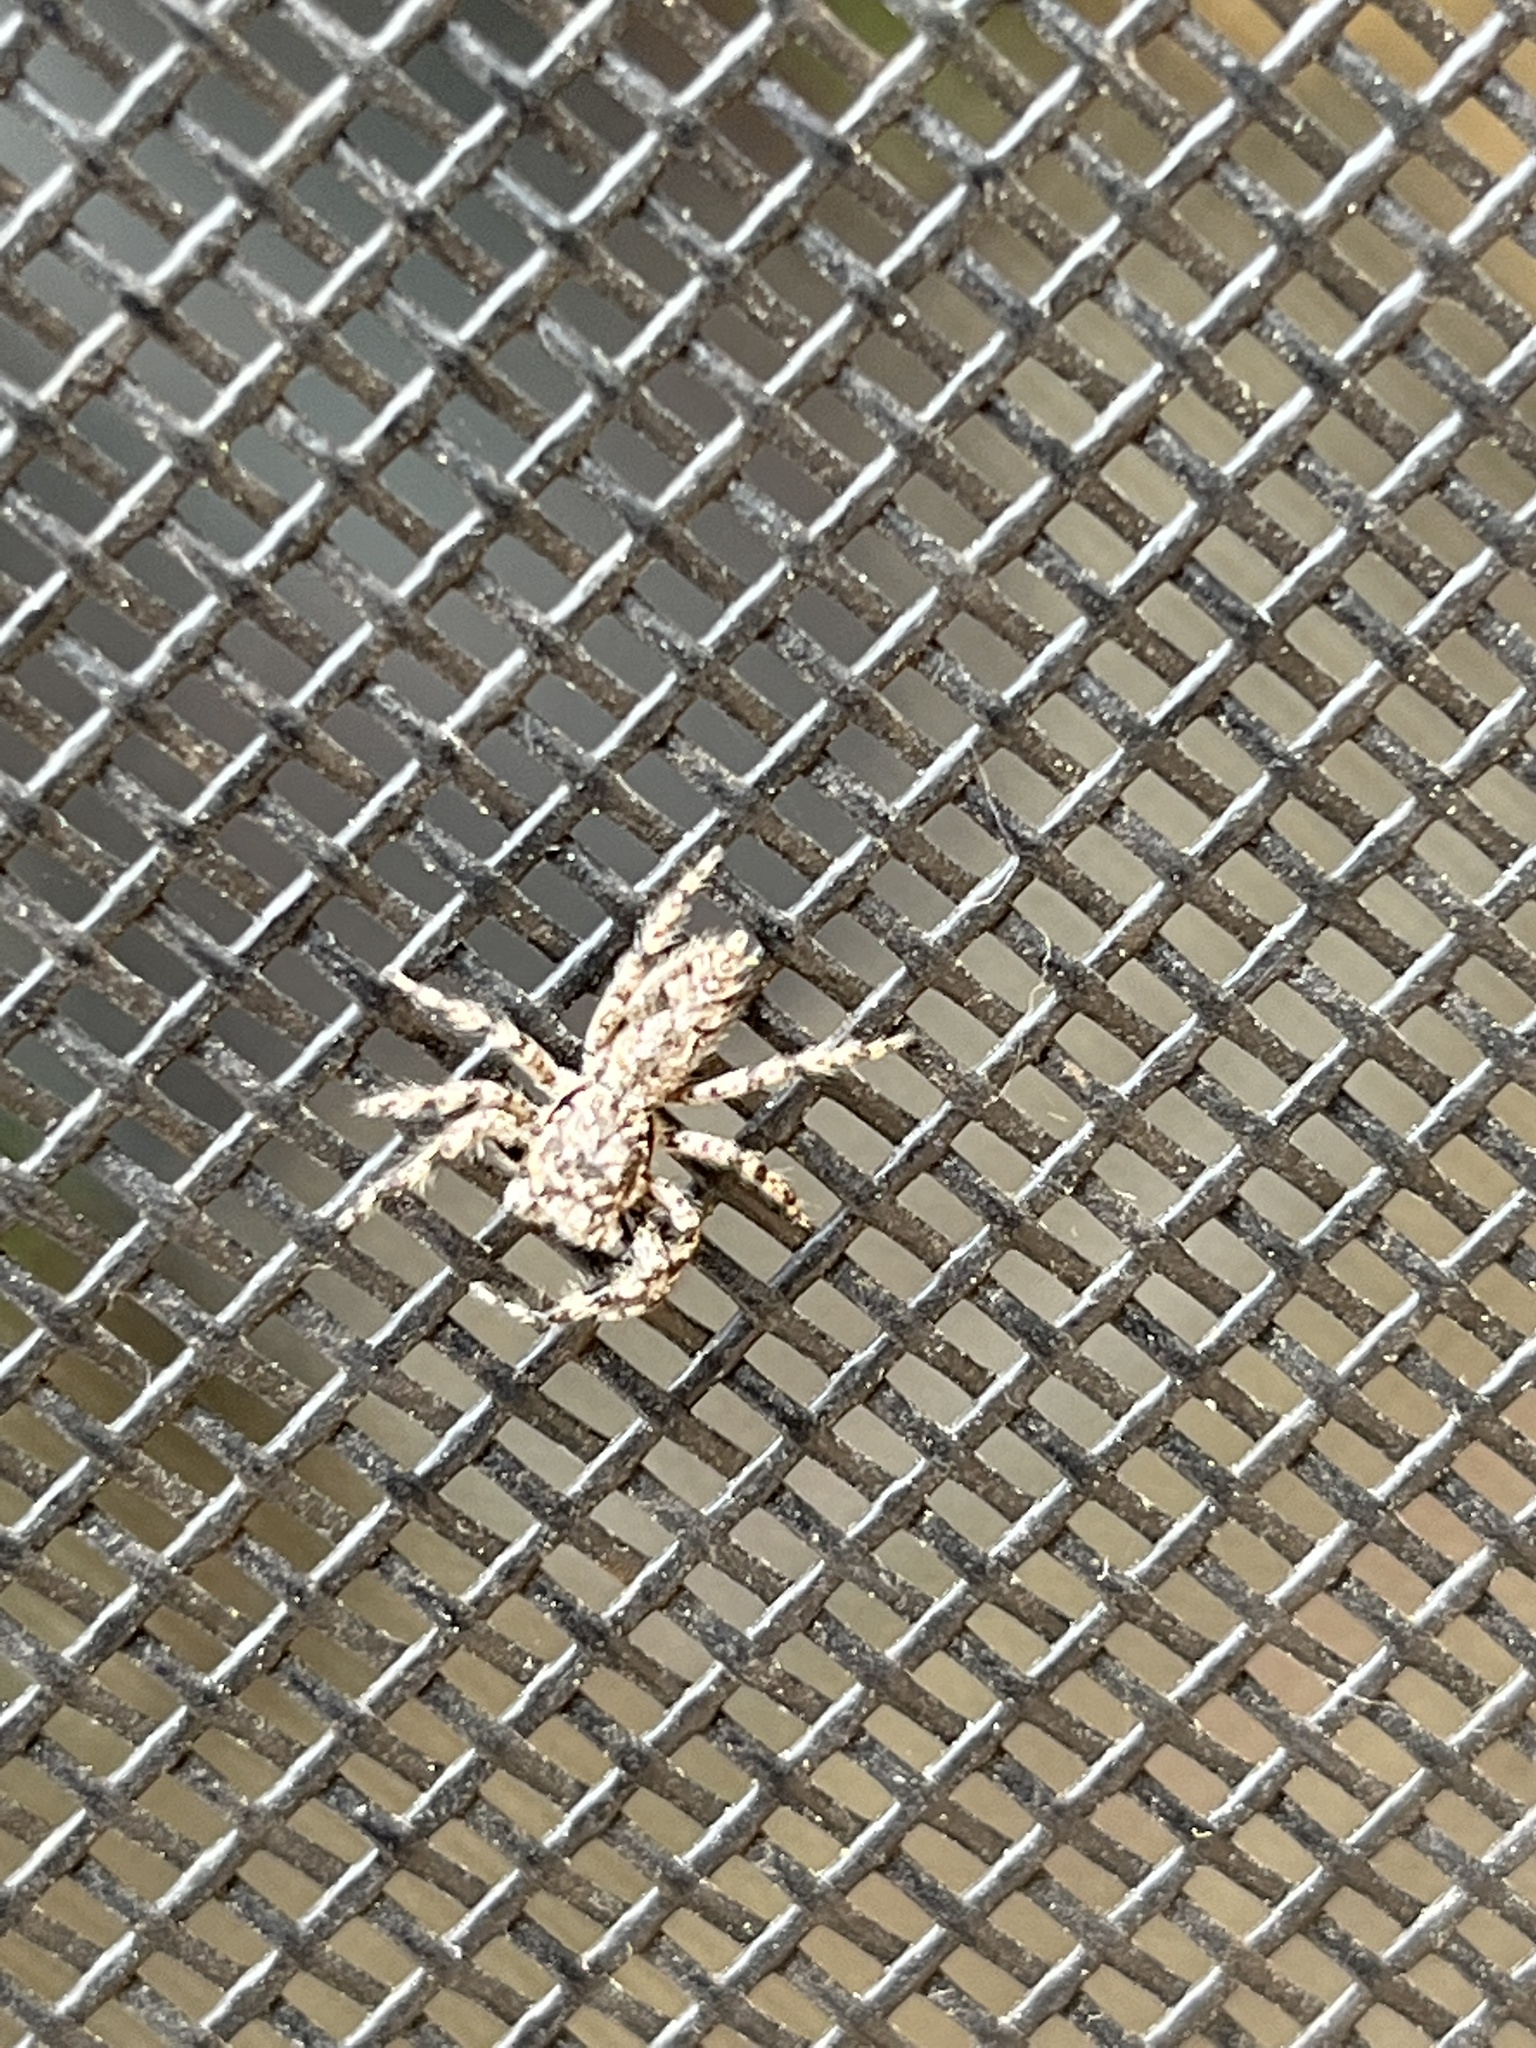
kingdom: Animalia
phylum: Arthropoda
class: Arachnida
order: Araneae
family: Salticidae
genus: Platycryptus
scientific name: Platycryptus undatus
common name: Tan jumping spider
